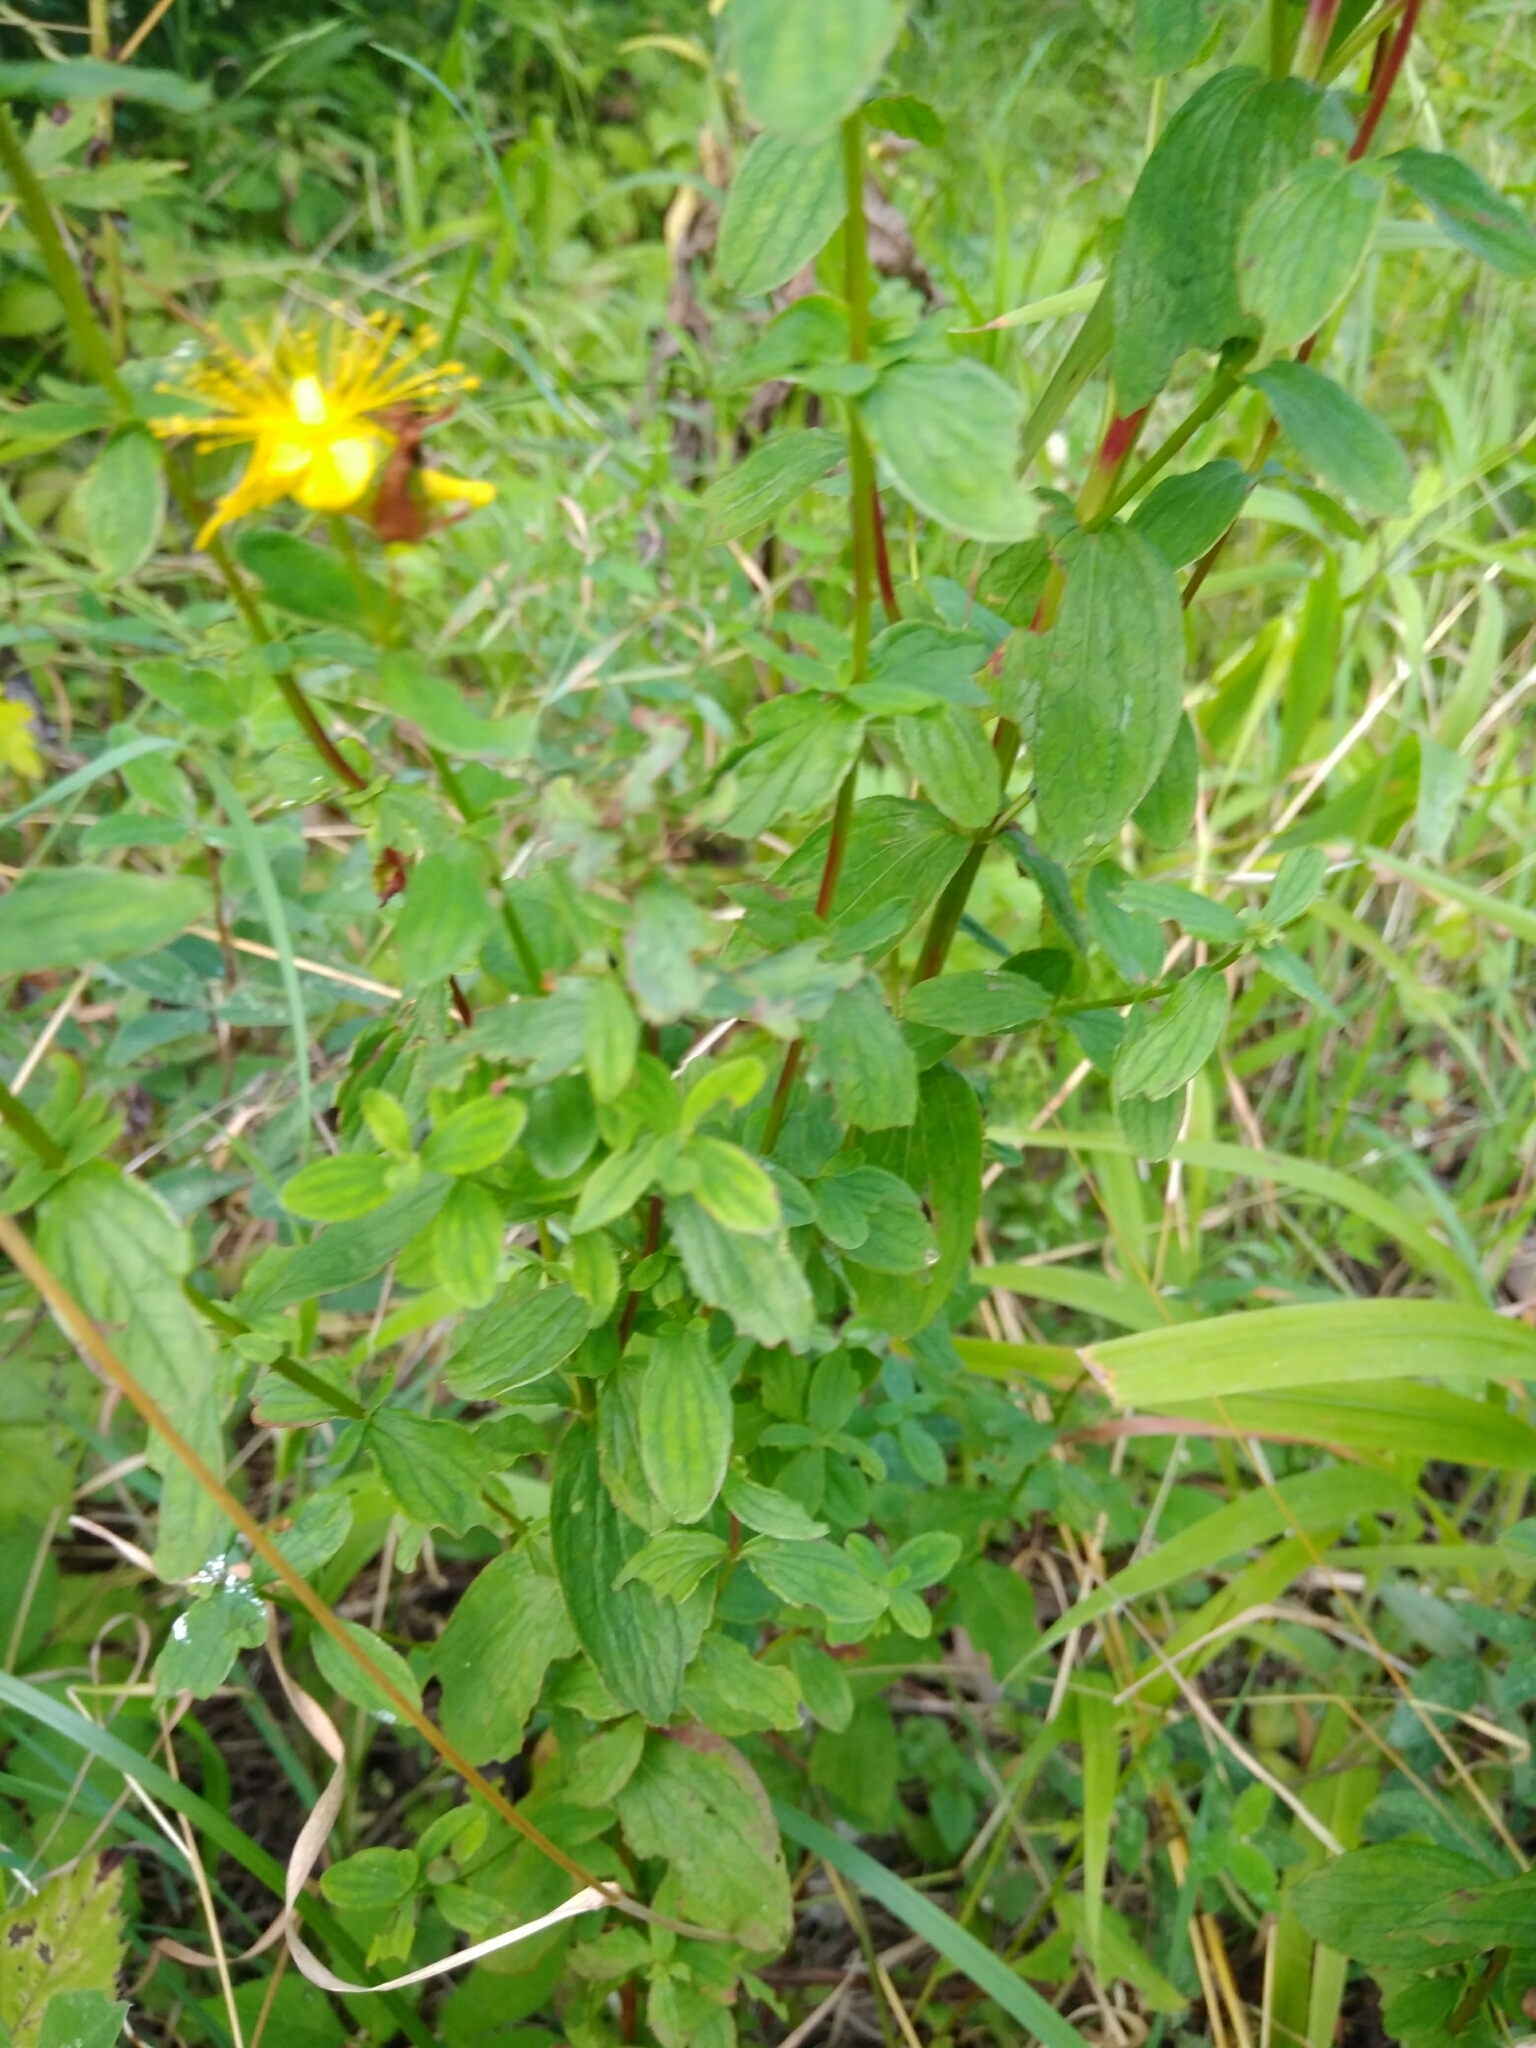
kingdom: Plantae
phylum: Tracheophyta
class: Magnoliopsida
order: Malpighiales
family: Hypericaceae
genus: Hypericum
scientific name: Hypericum maculatum
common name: Imperforate st. john's-wort
